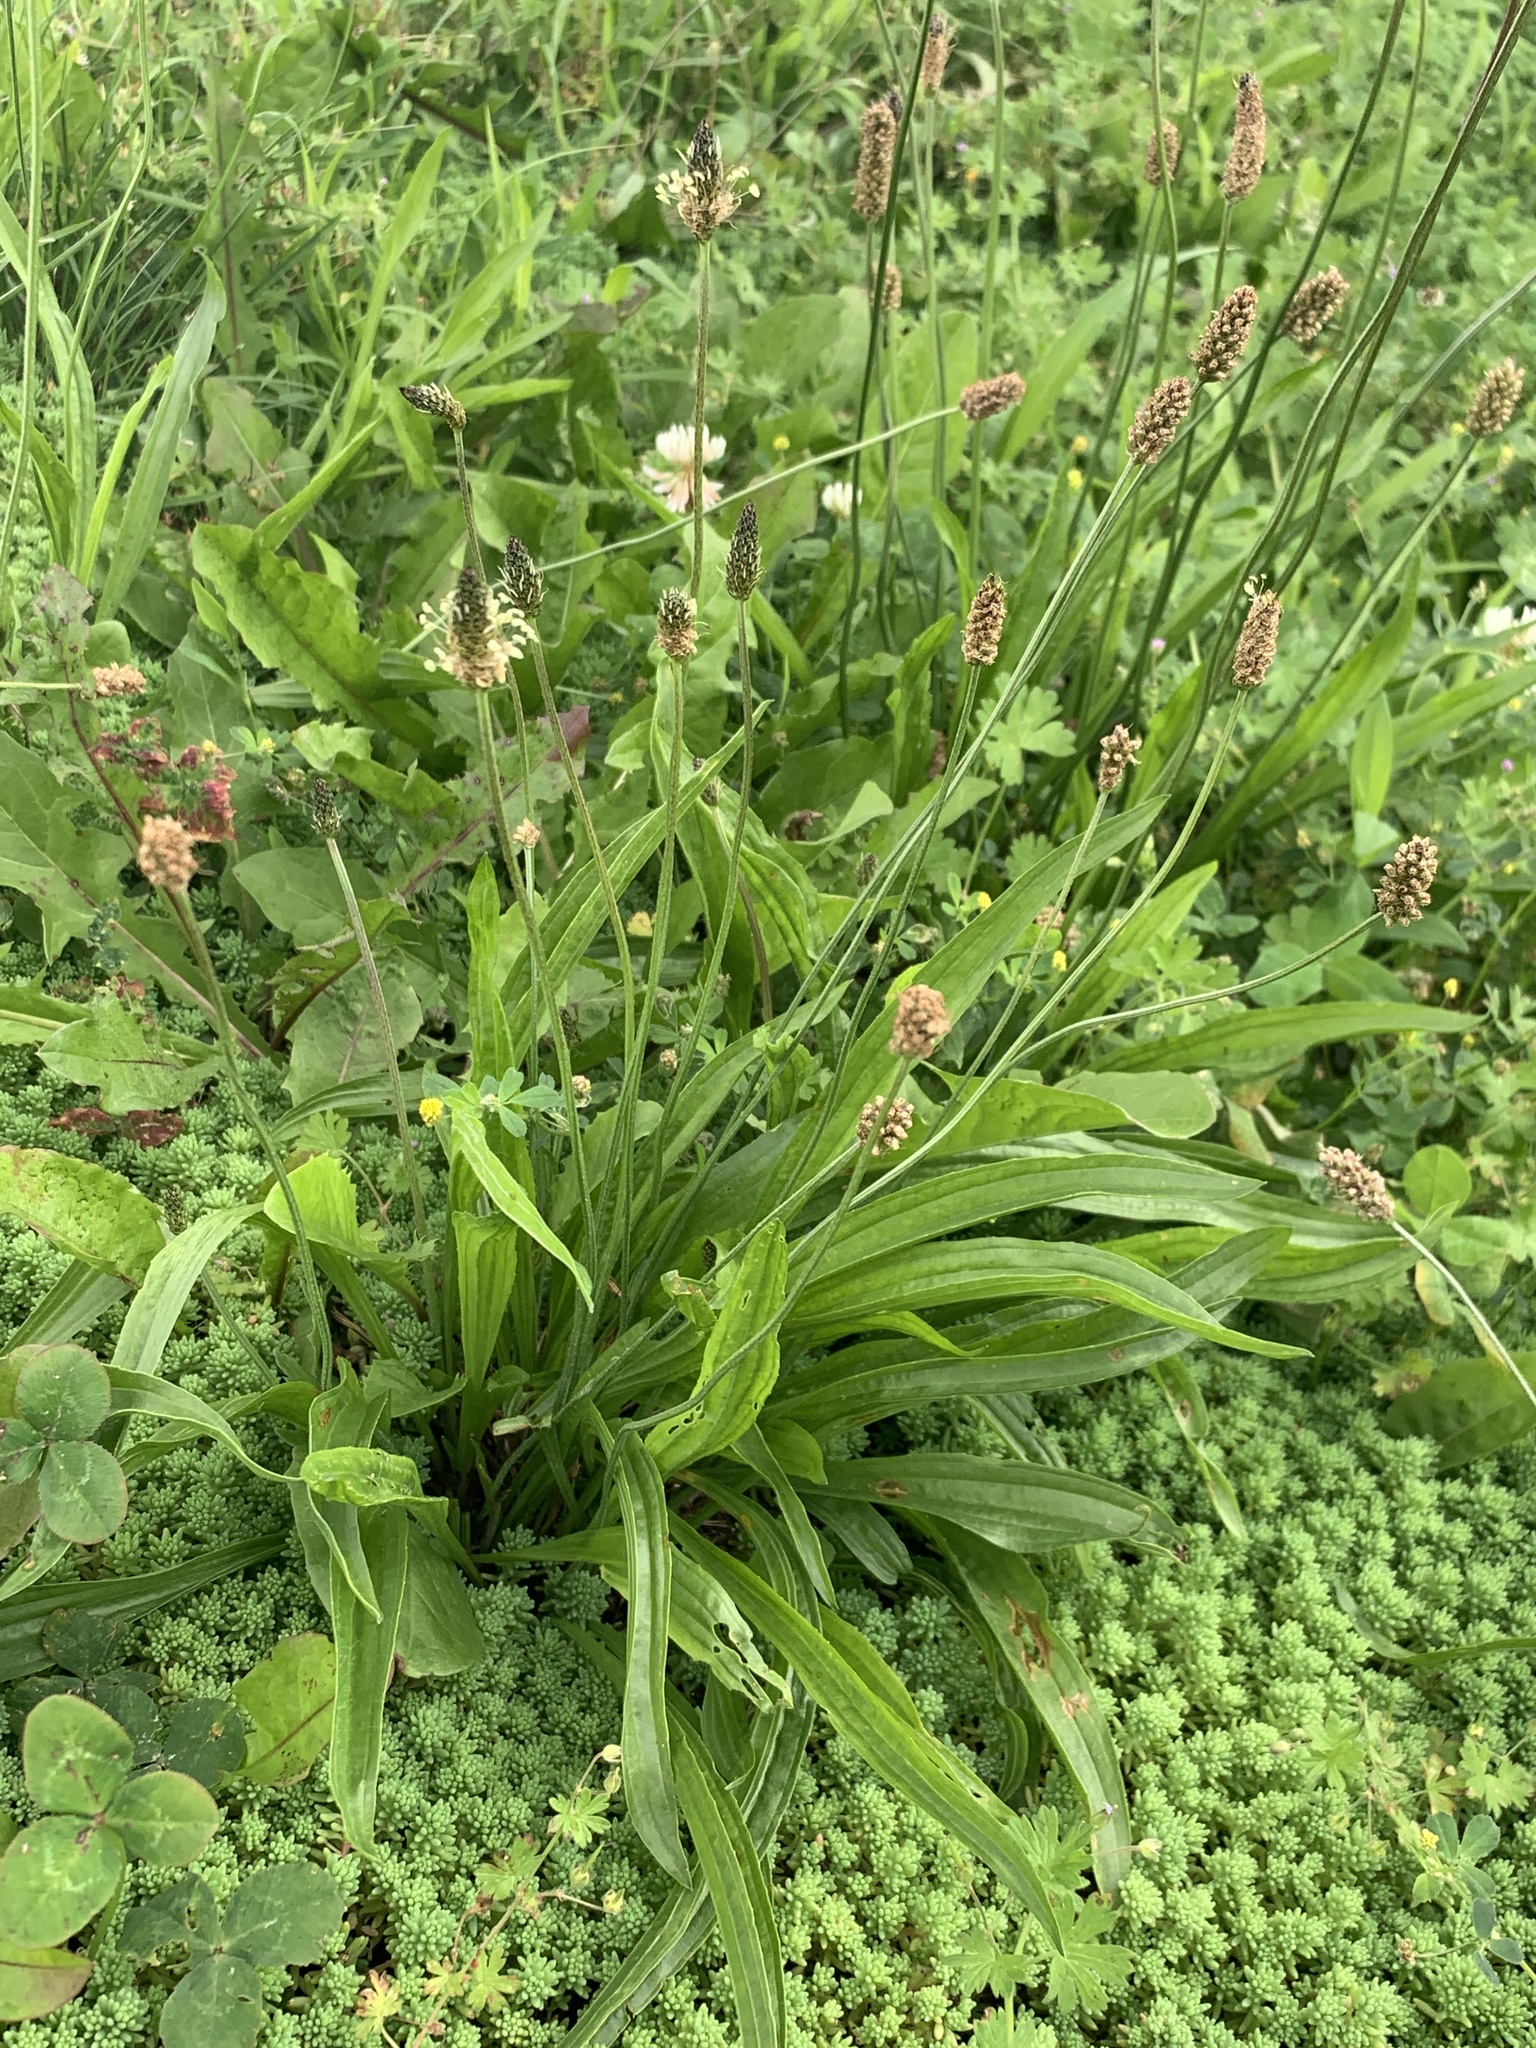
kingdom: Plantae
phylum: Tracheophyta
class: Magnoliopsida
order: Lamiales
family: Plantaginaceae
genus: Plantago
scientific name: Plantago lanceolata
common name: Ribwort plantain
